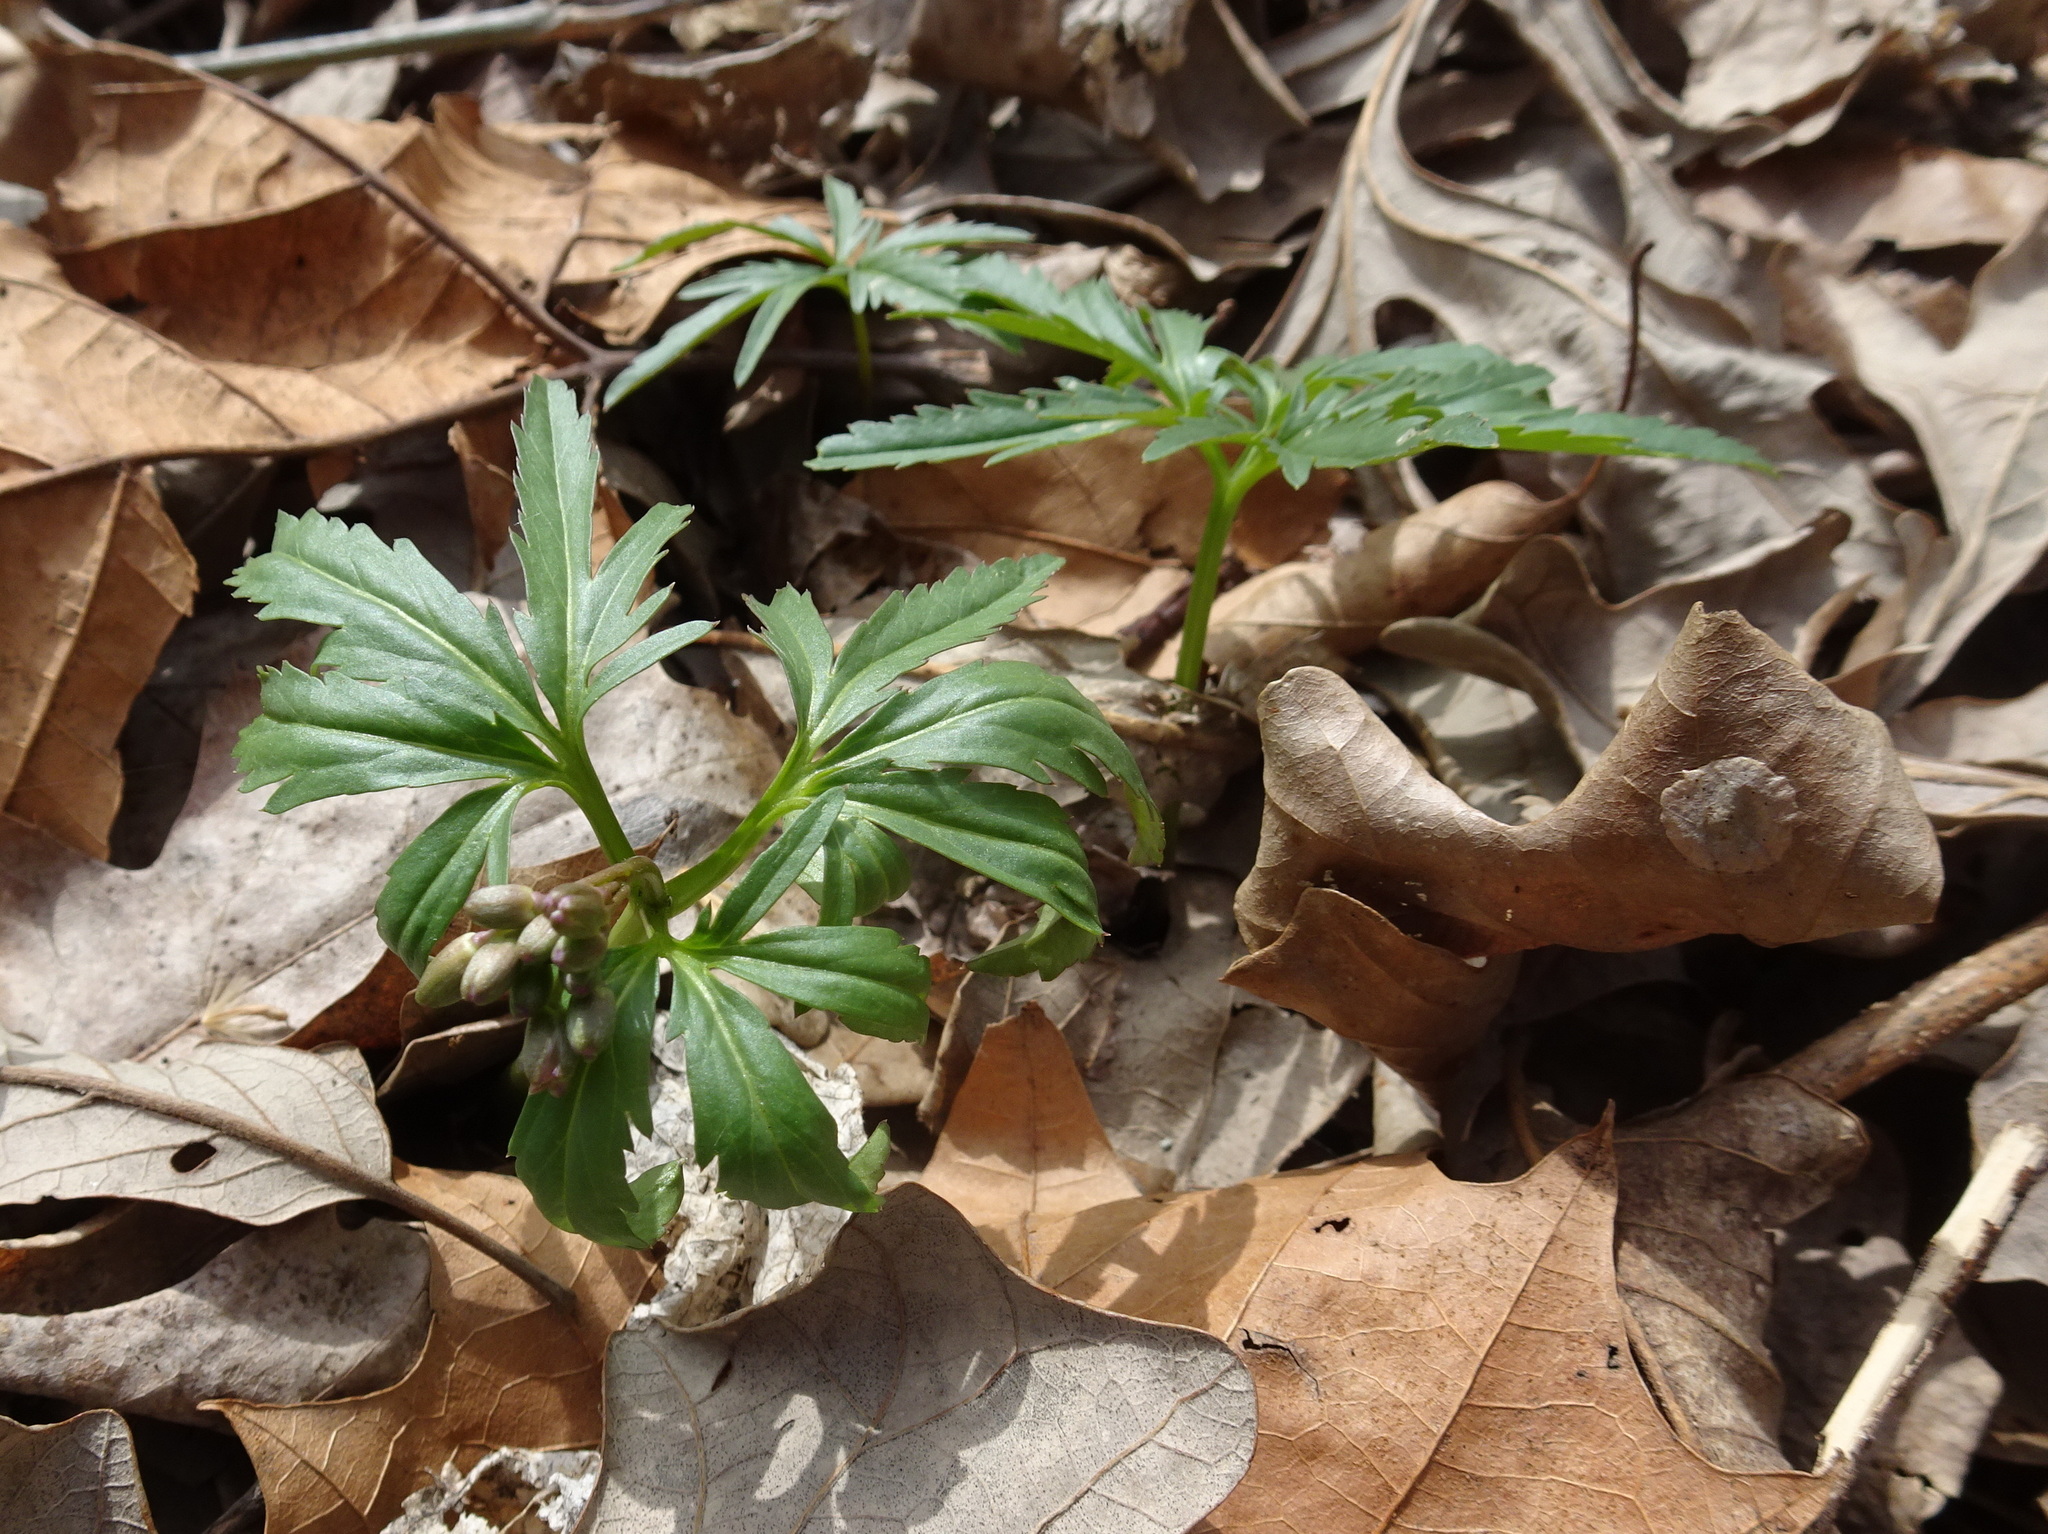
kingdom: Plantae
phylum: Tracheophyta
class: Magnoliopsida
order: Brassicales
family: Brassicaceae
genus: Cardamine
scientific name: Cardamine concatenata
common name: Cut-leaf toothcup
